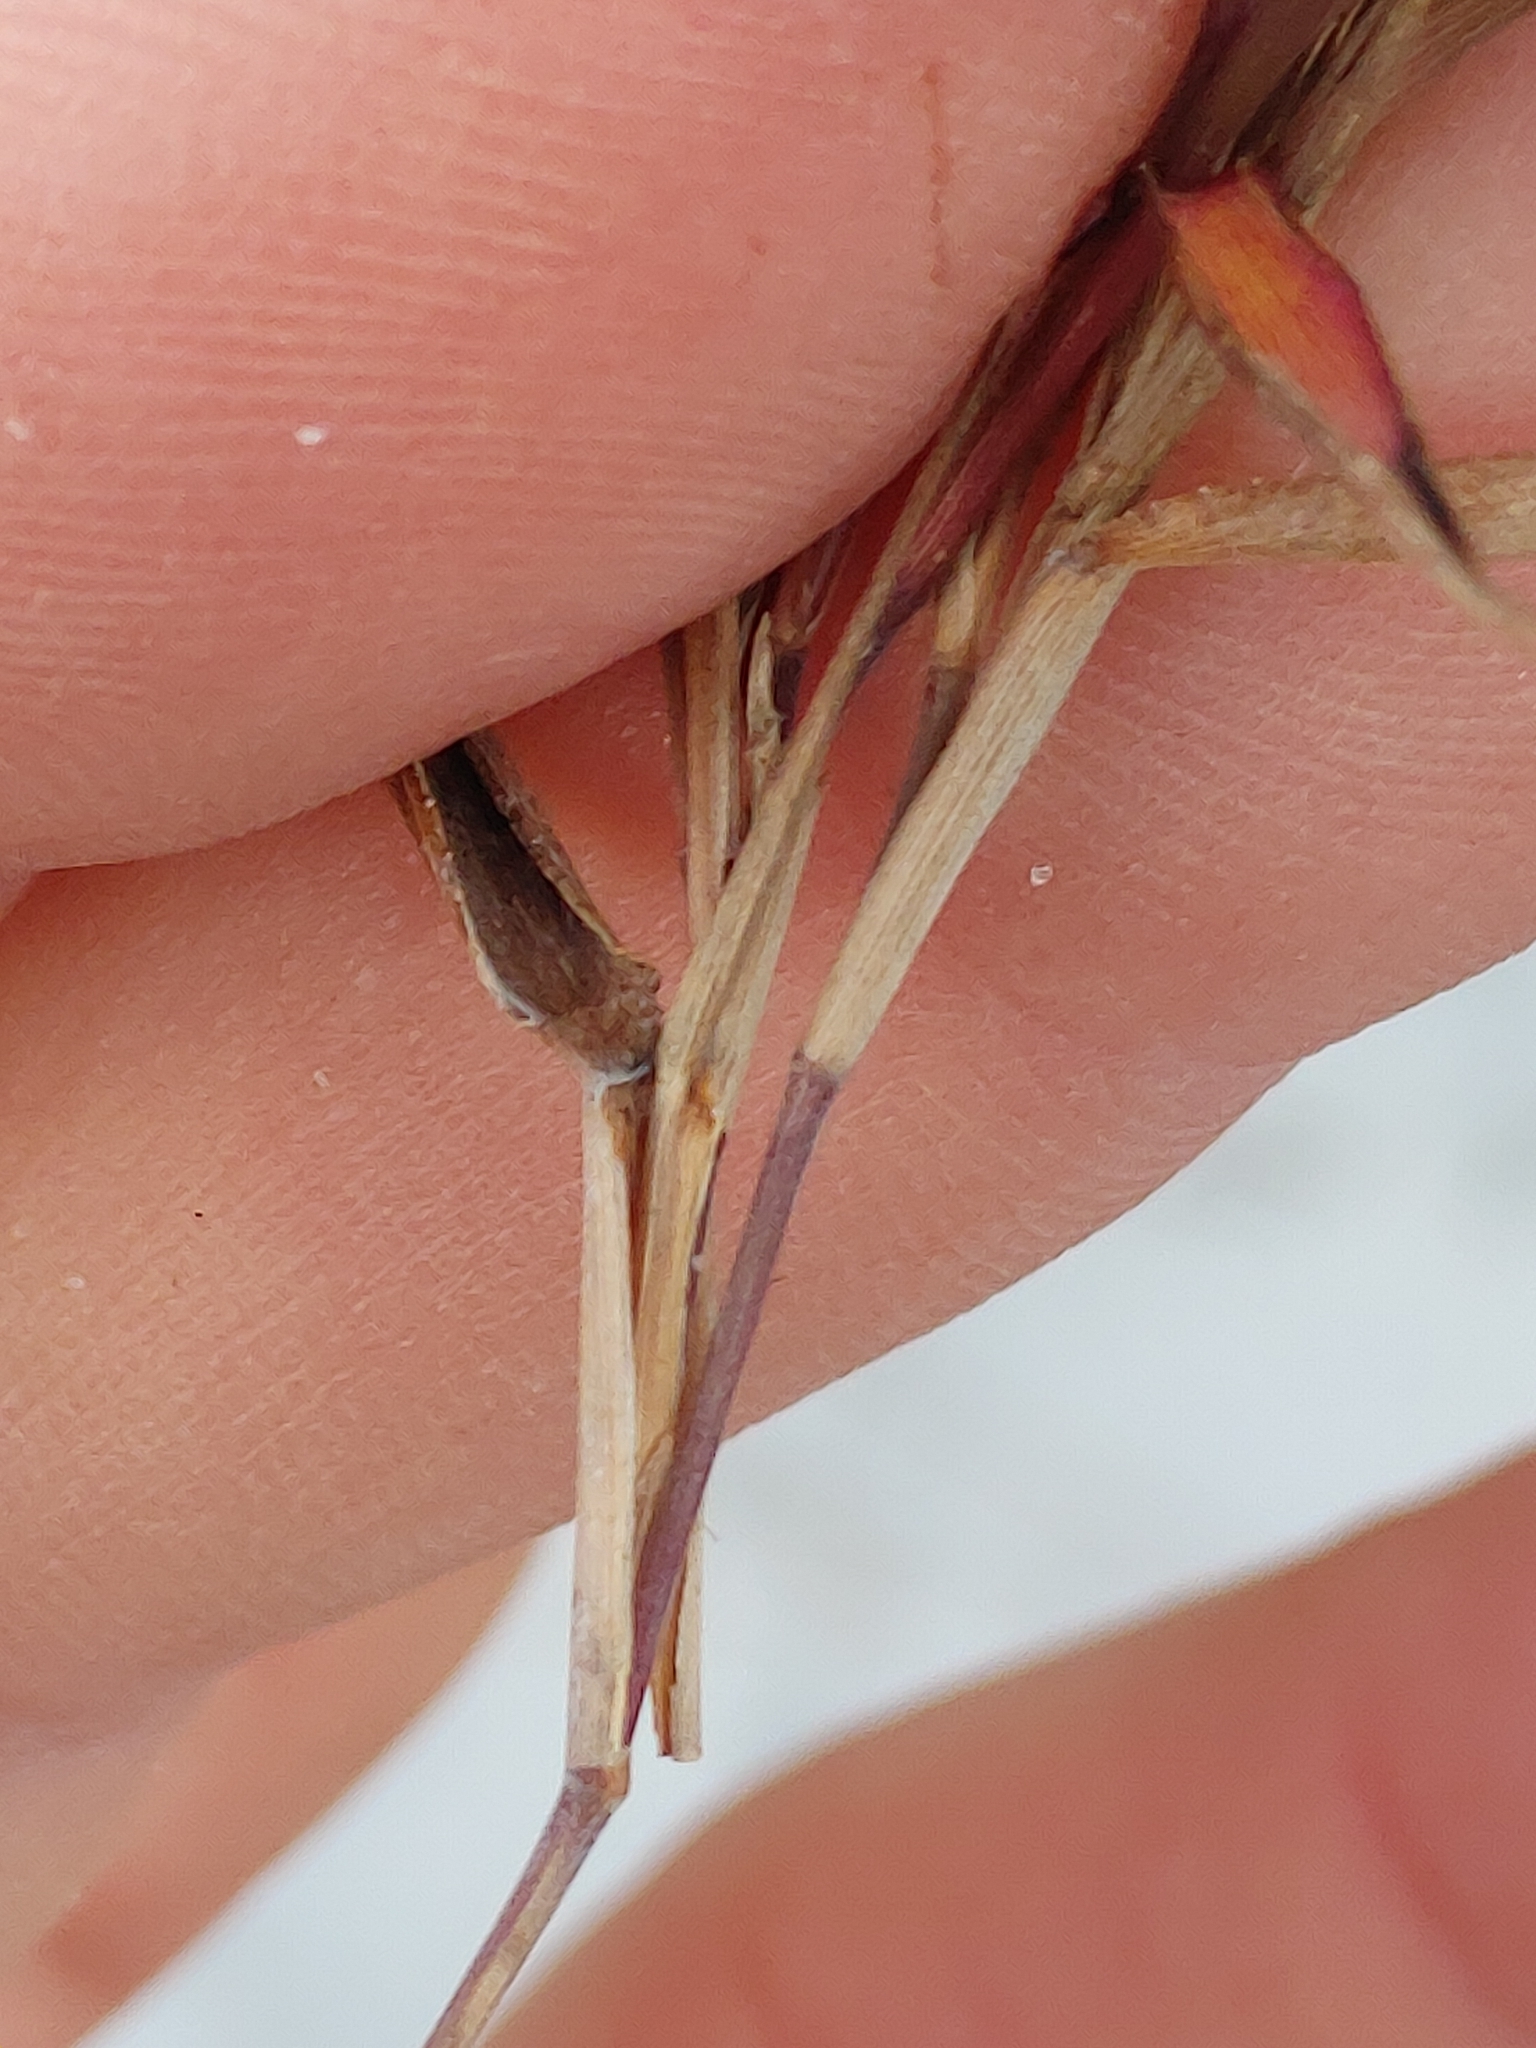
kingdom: Plantae
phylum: Tracheophyta
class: Liliopsida
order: Poales
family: Poaceae
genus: Dichanthelium
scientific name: Dichanthelium portoricense
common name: American panicgrass
